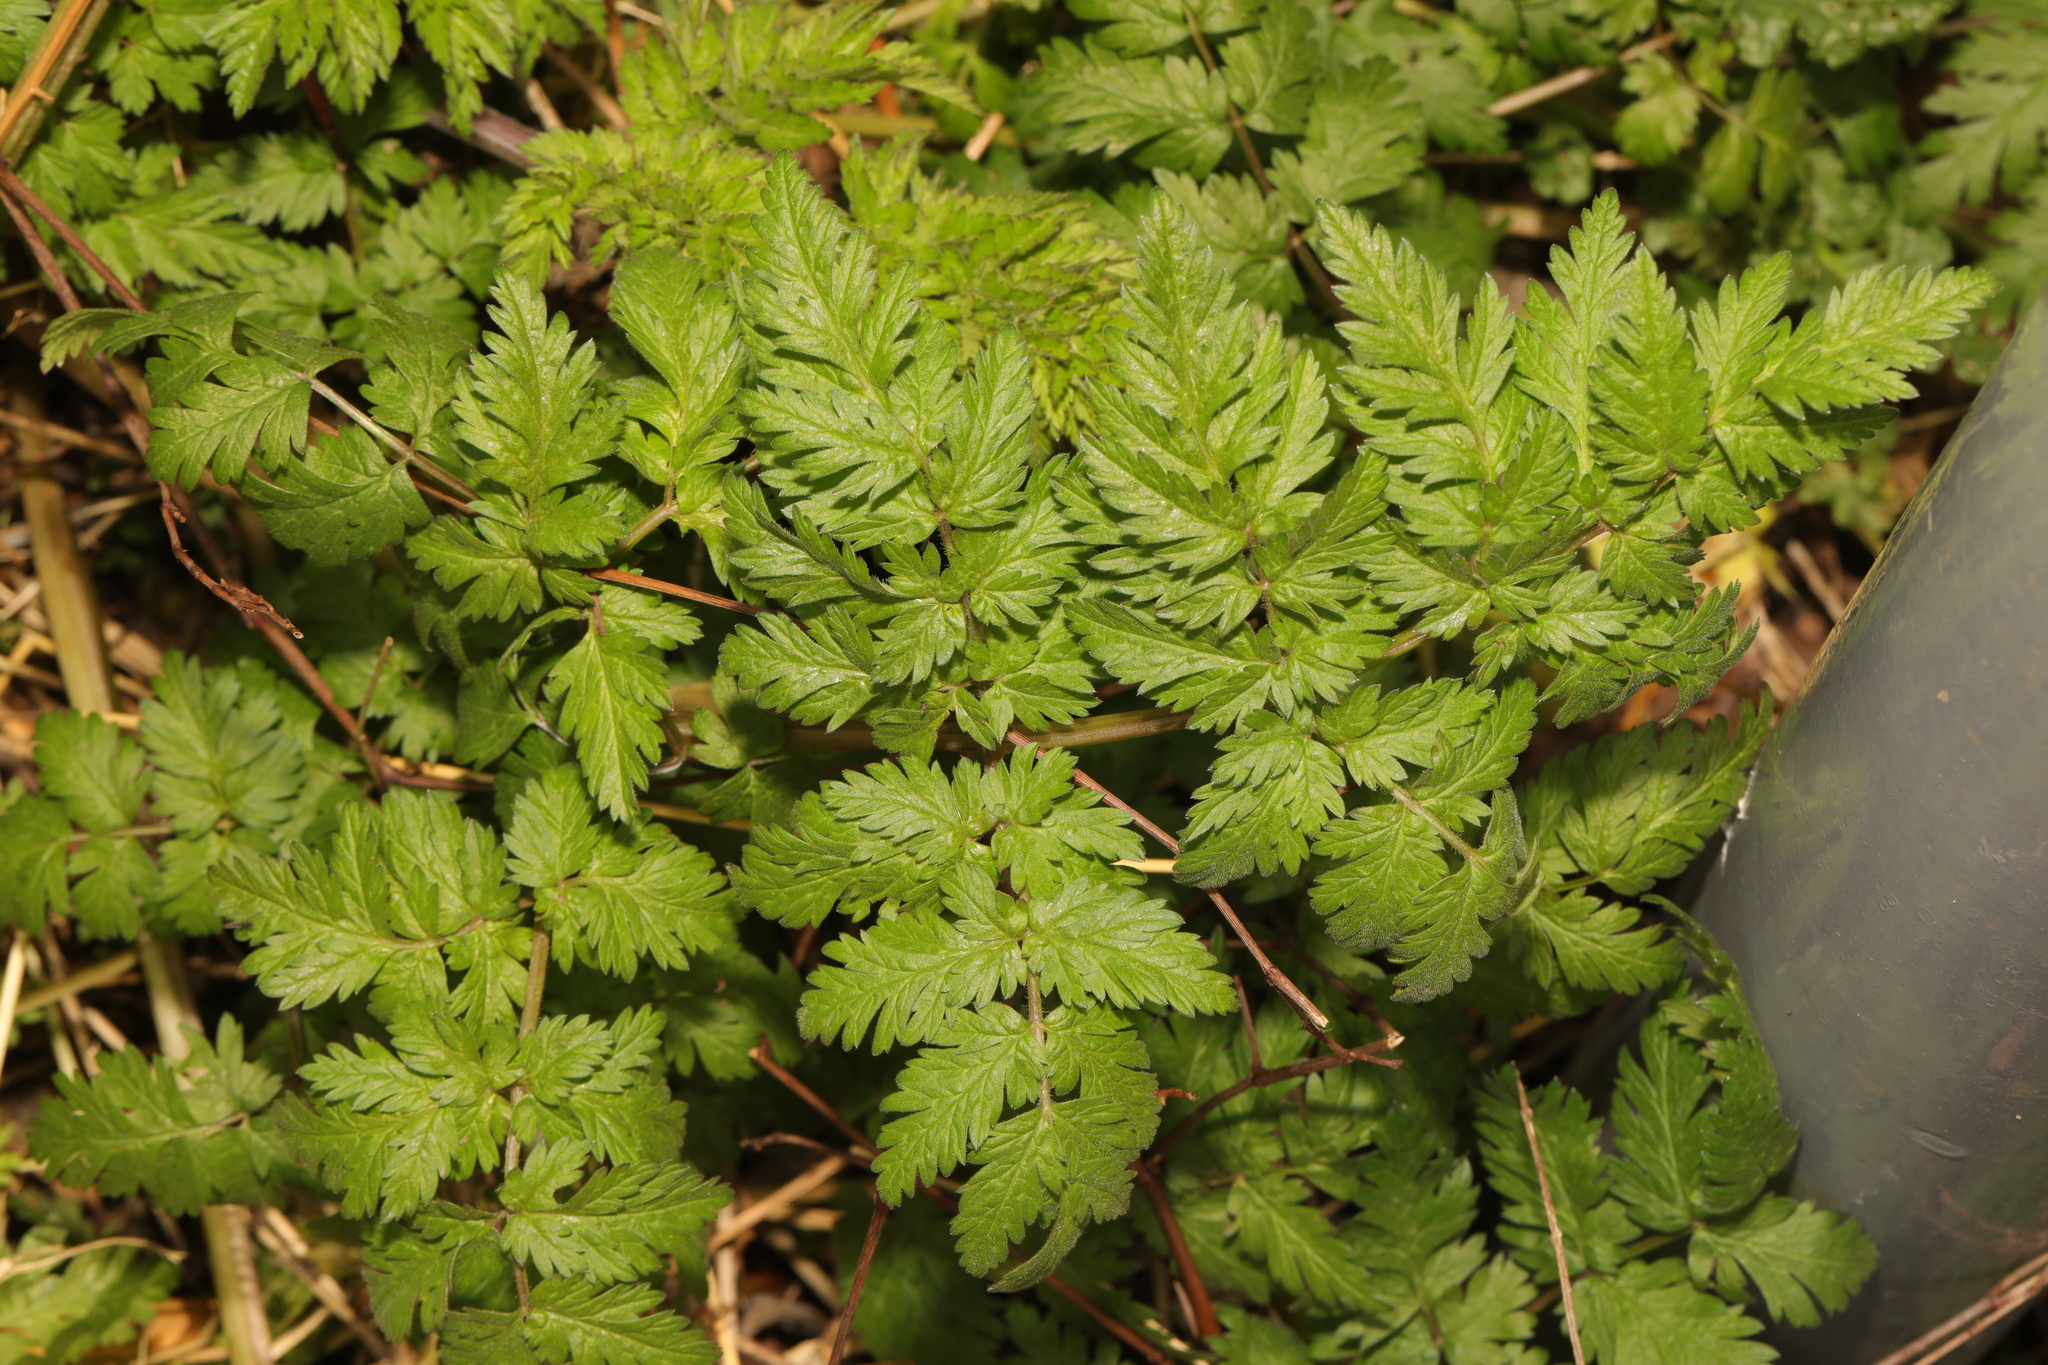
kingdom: Plantae
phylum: Tracheophyta
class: Magnoliopsida
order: Apiales
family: Apiaceae
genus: Anthriscus
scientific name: Anthriscus sylvestris
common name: Cow parsley
